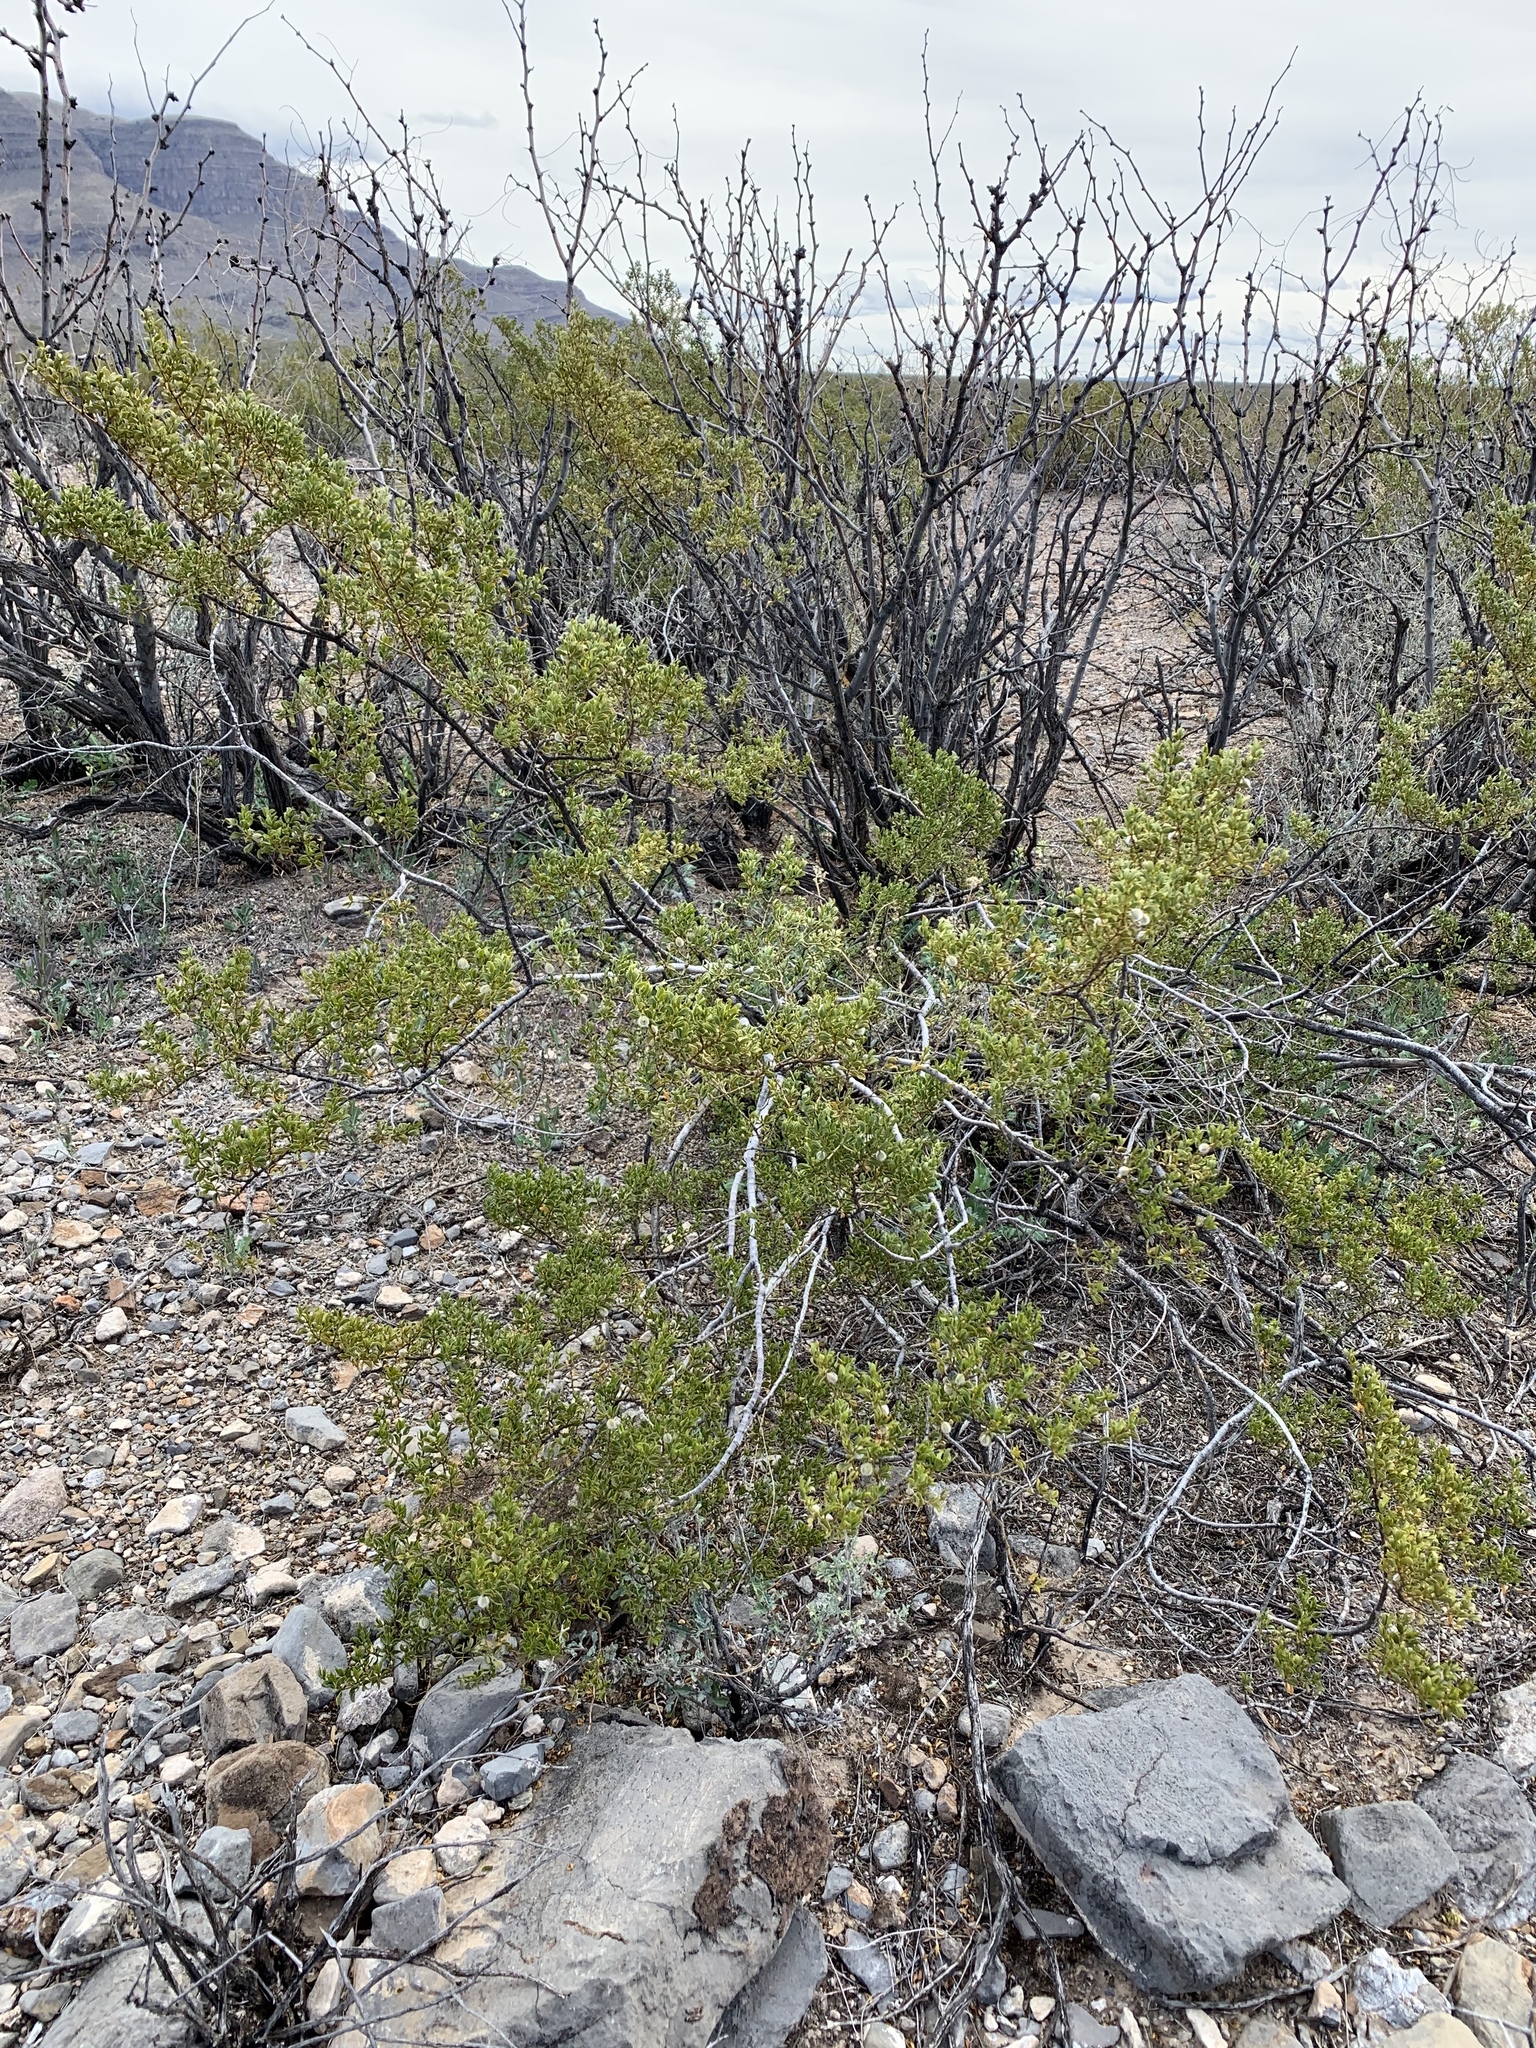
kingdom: Plantae
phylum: Tracheophyta
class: Magnoliopsida
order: Zygophyllales
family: Zygophyllaceae
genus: Larrea
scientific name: Larrea tridentata
